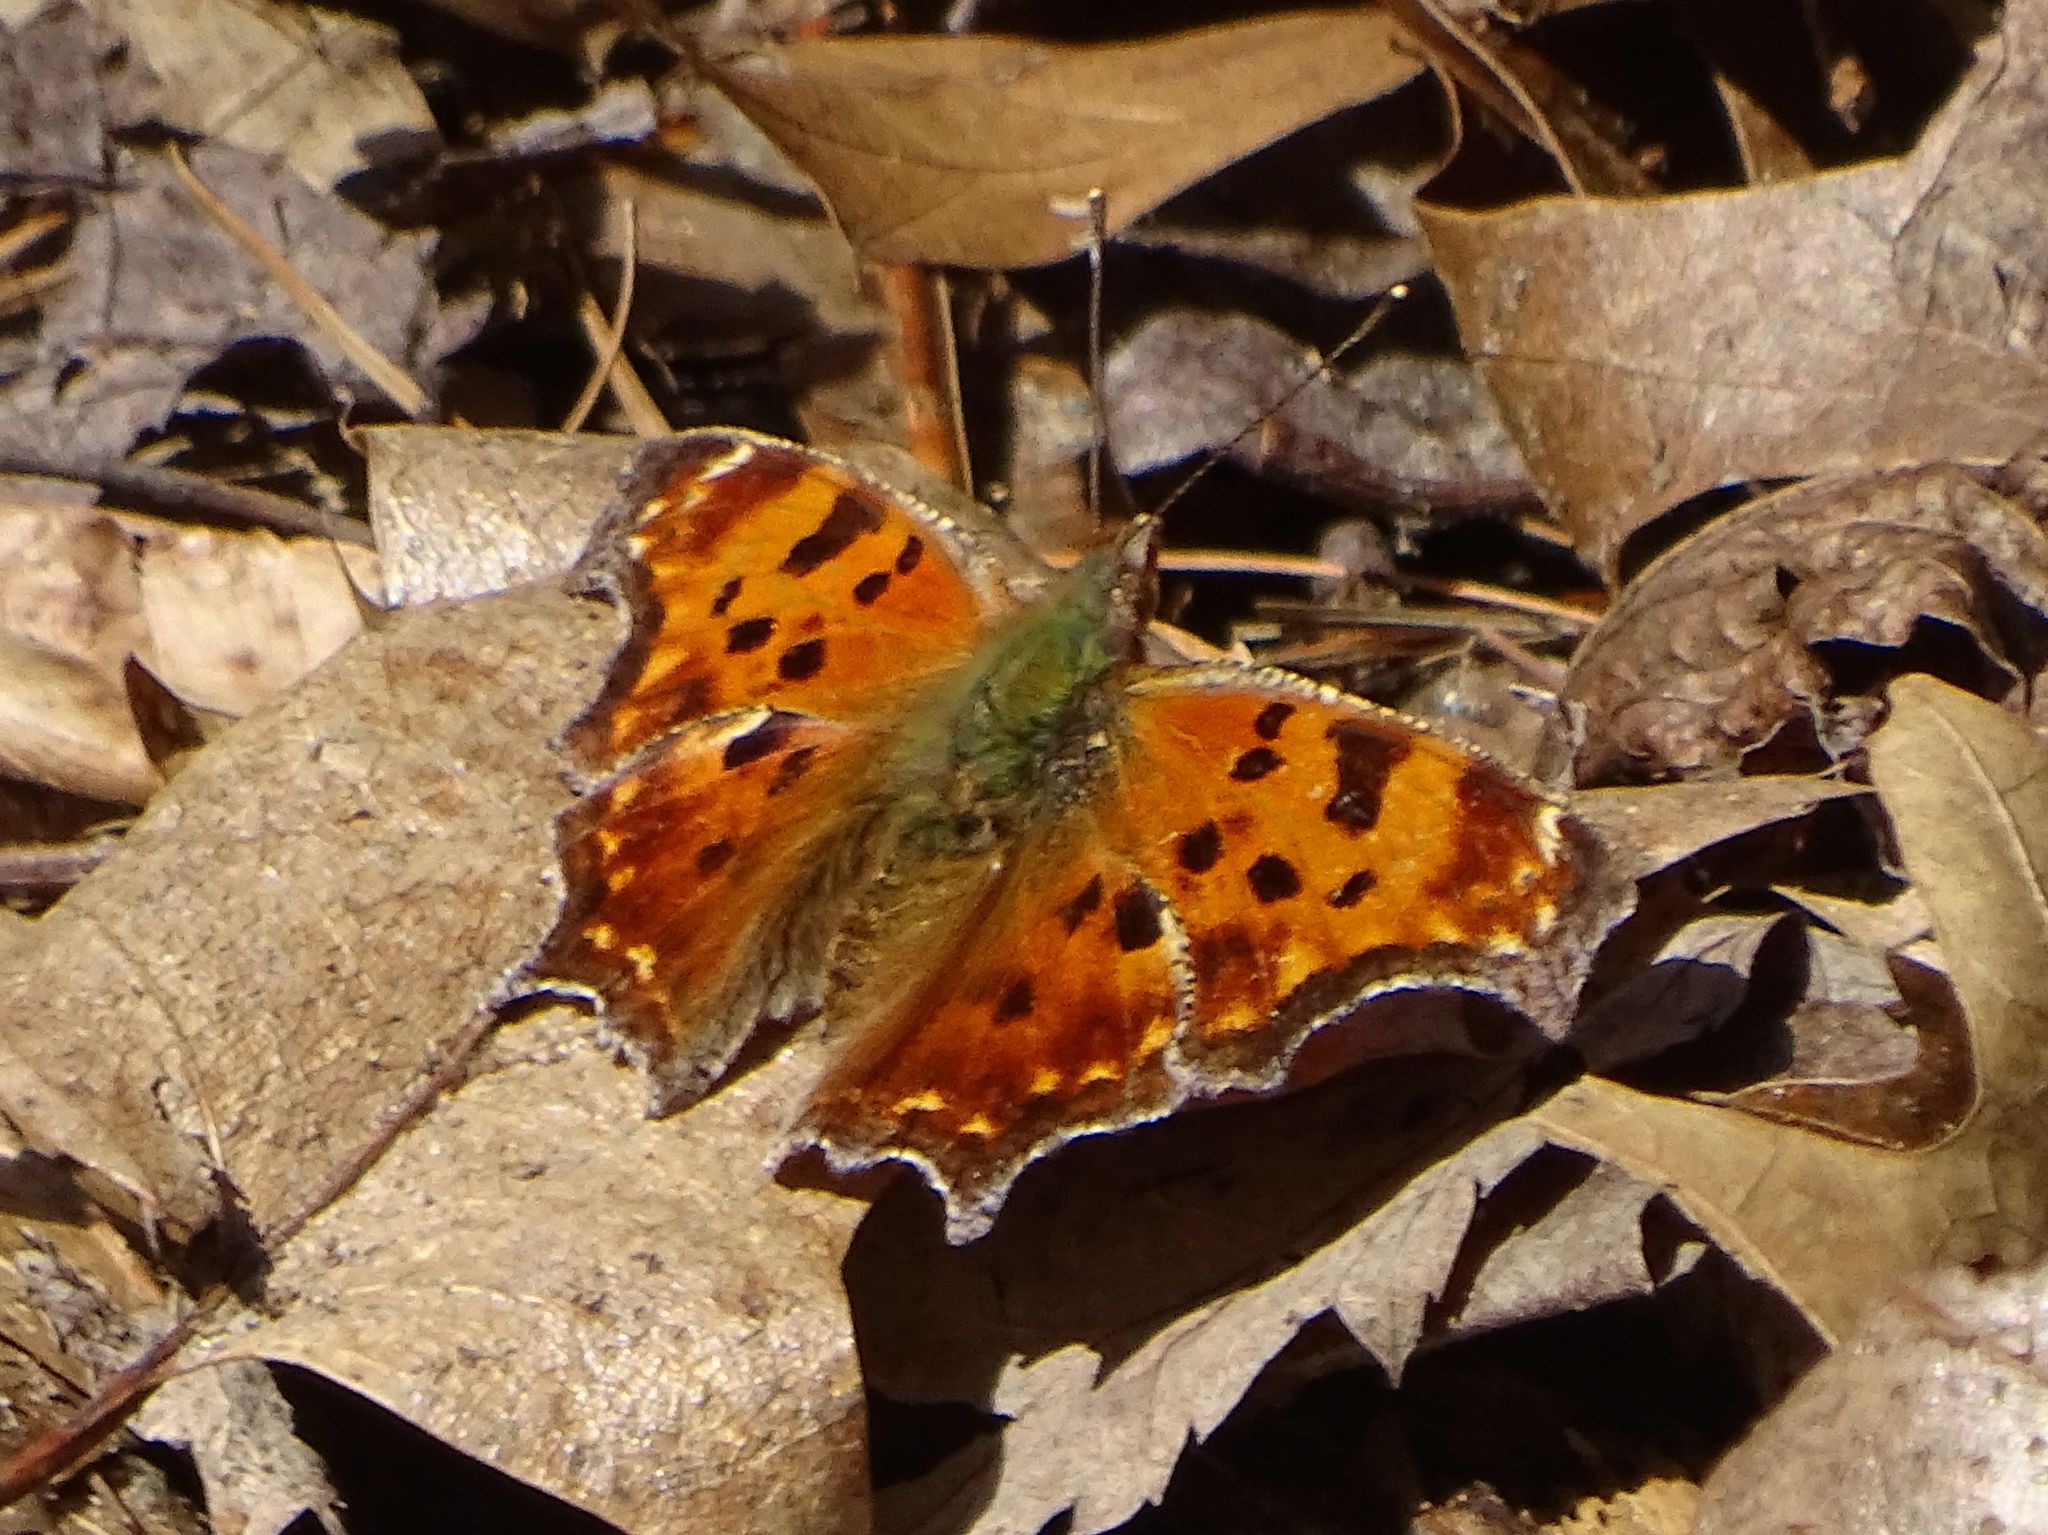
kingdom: Animalia
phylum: Arthropoda
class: Insecta
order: Lepidoptera
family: Nymphalidae
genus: Polygonia
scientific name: Polygonia comma
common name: Eastern comma
